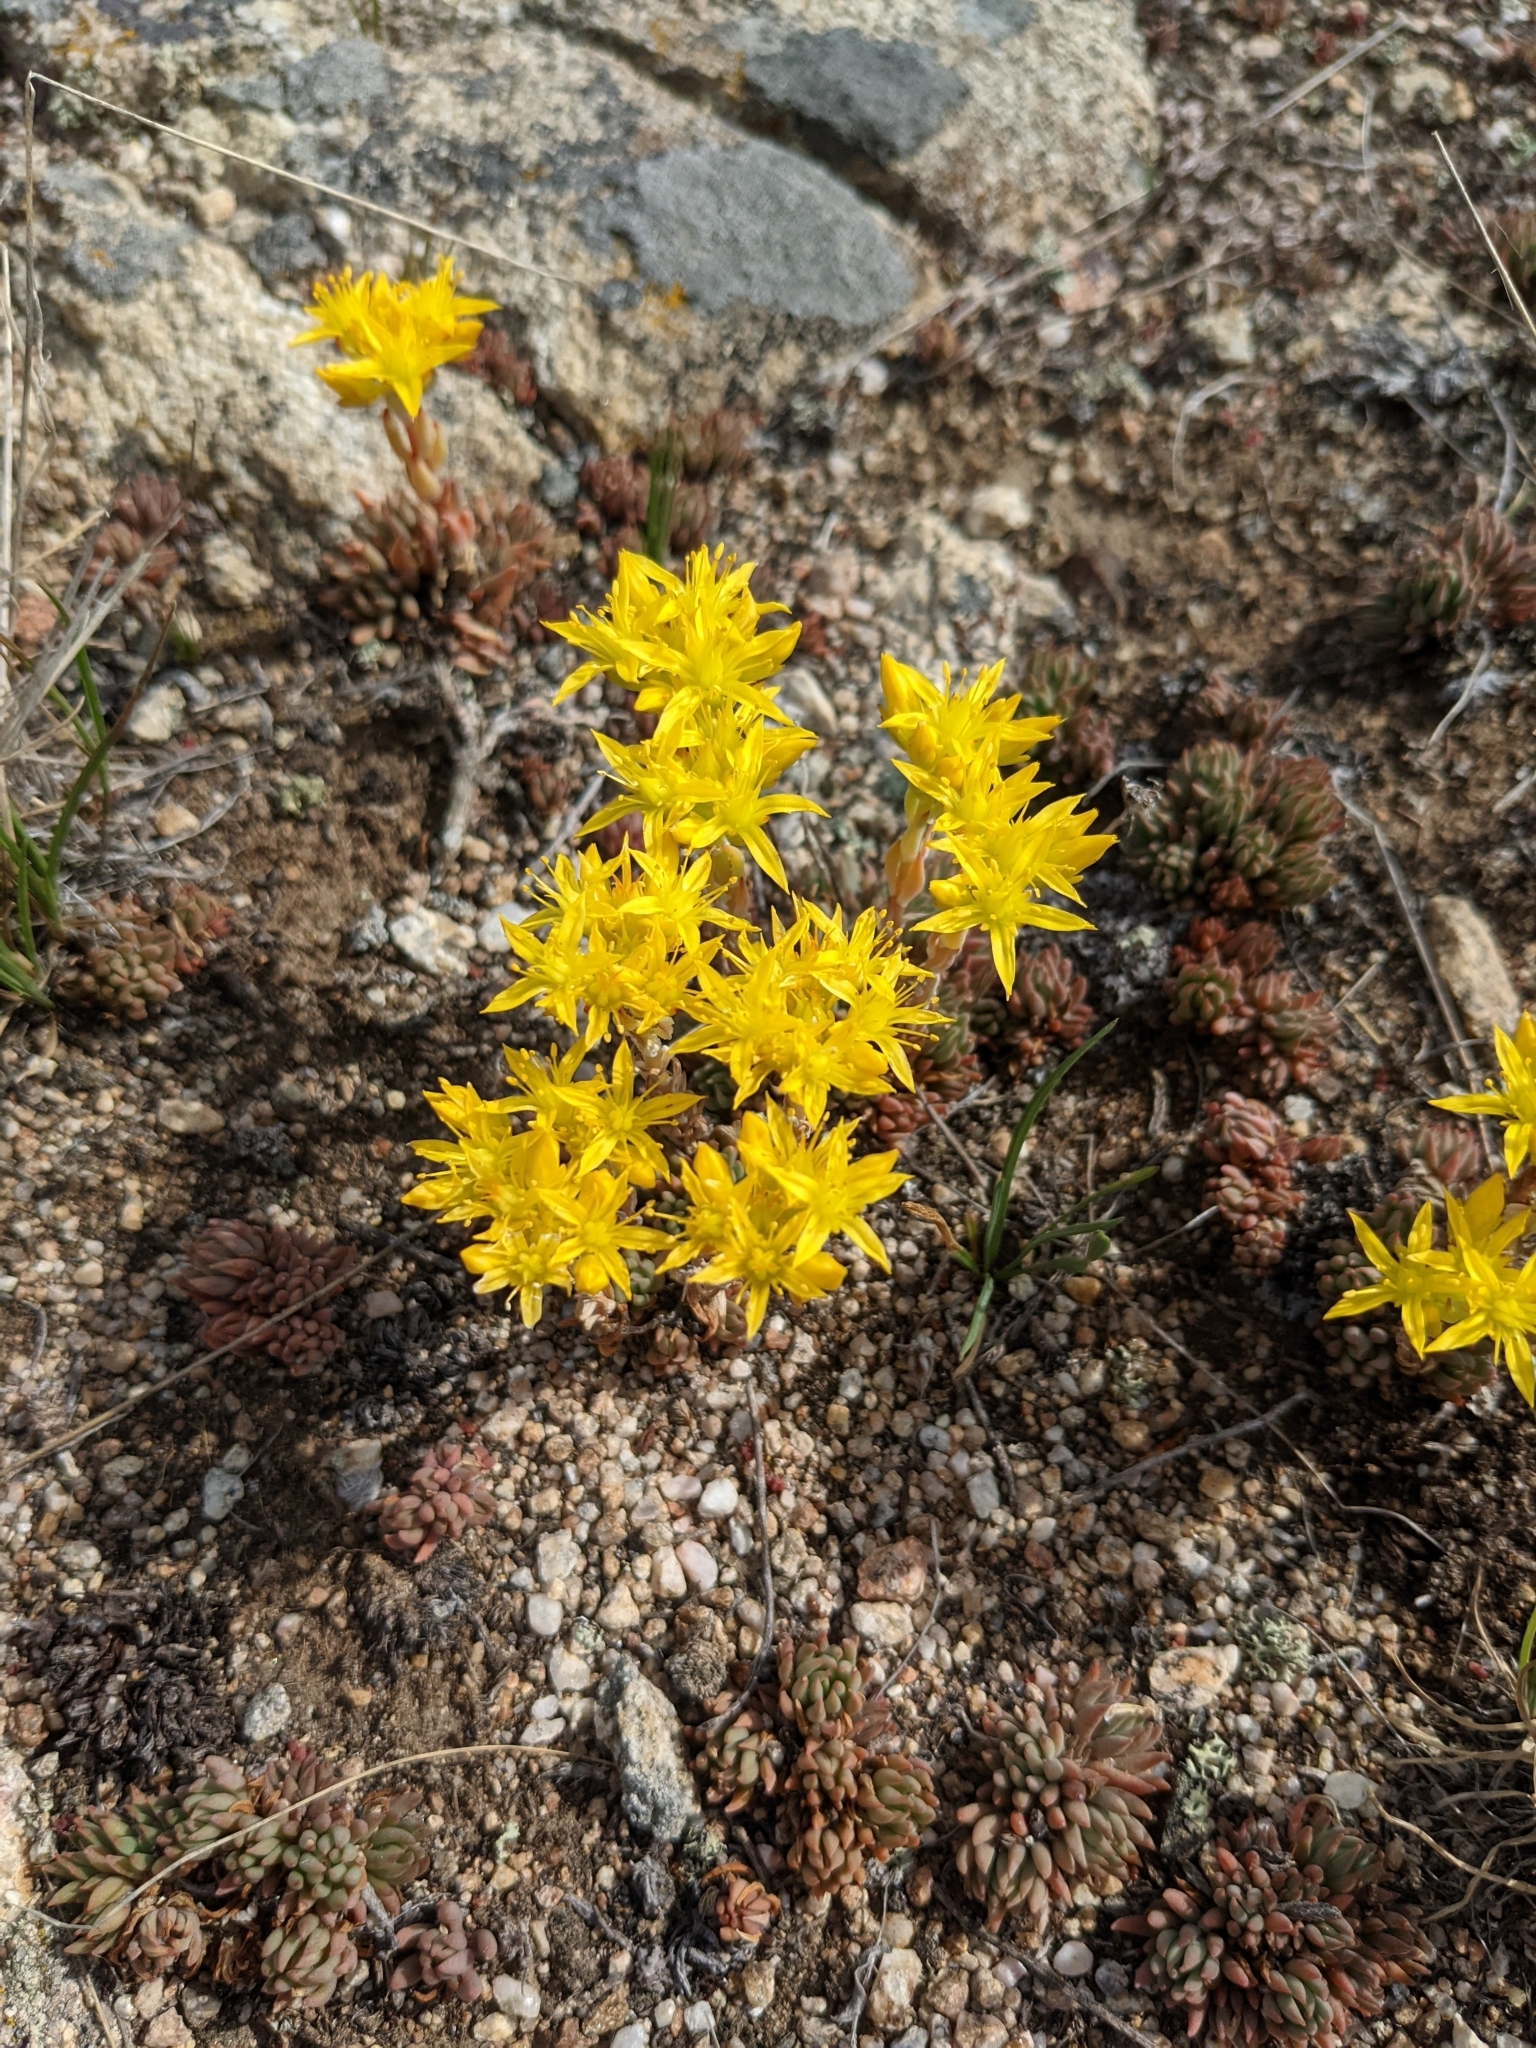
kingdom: Plantae
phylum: Tracheophyta
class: Magnoliopsida
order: Saxifragales
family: Crassulaceae
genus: Sedum
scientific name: Sedum lanceolatum
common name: Common stonecrop
